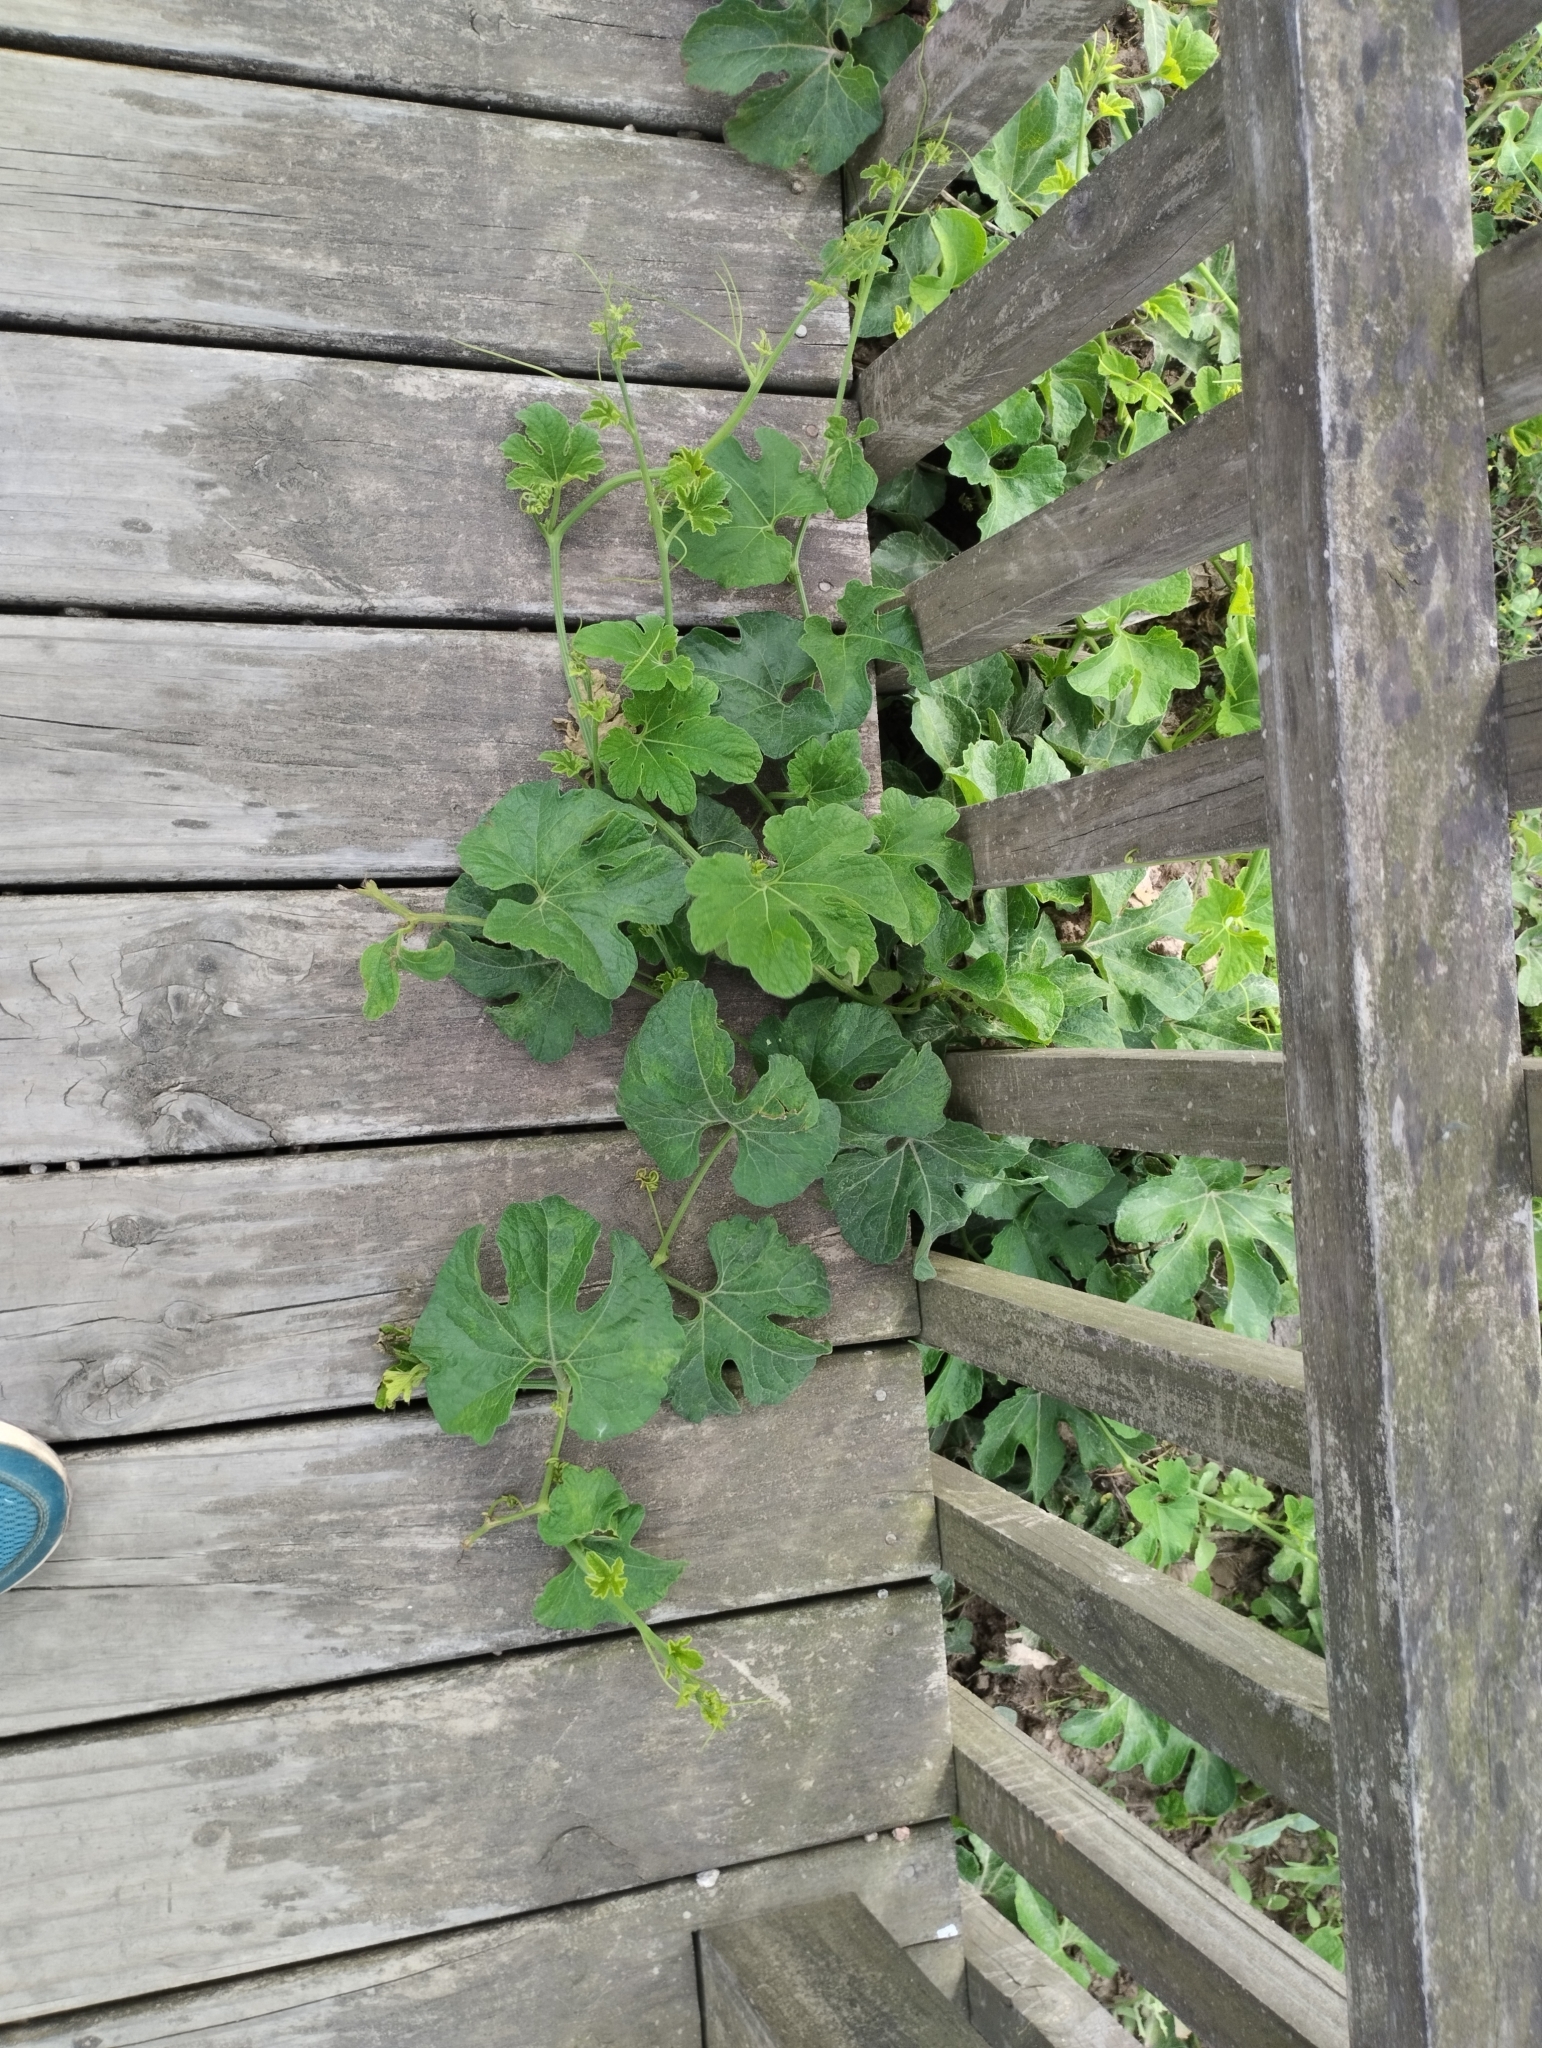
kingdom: Plantae
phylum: Tracheophyta
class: Magnoliopsida
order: Cucurbitales
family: Cucurbitaceae
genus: Cayaponia
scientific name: Cayaponia martiana
